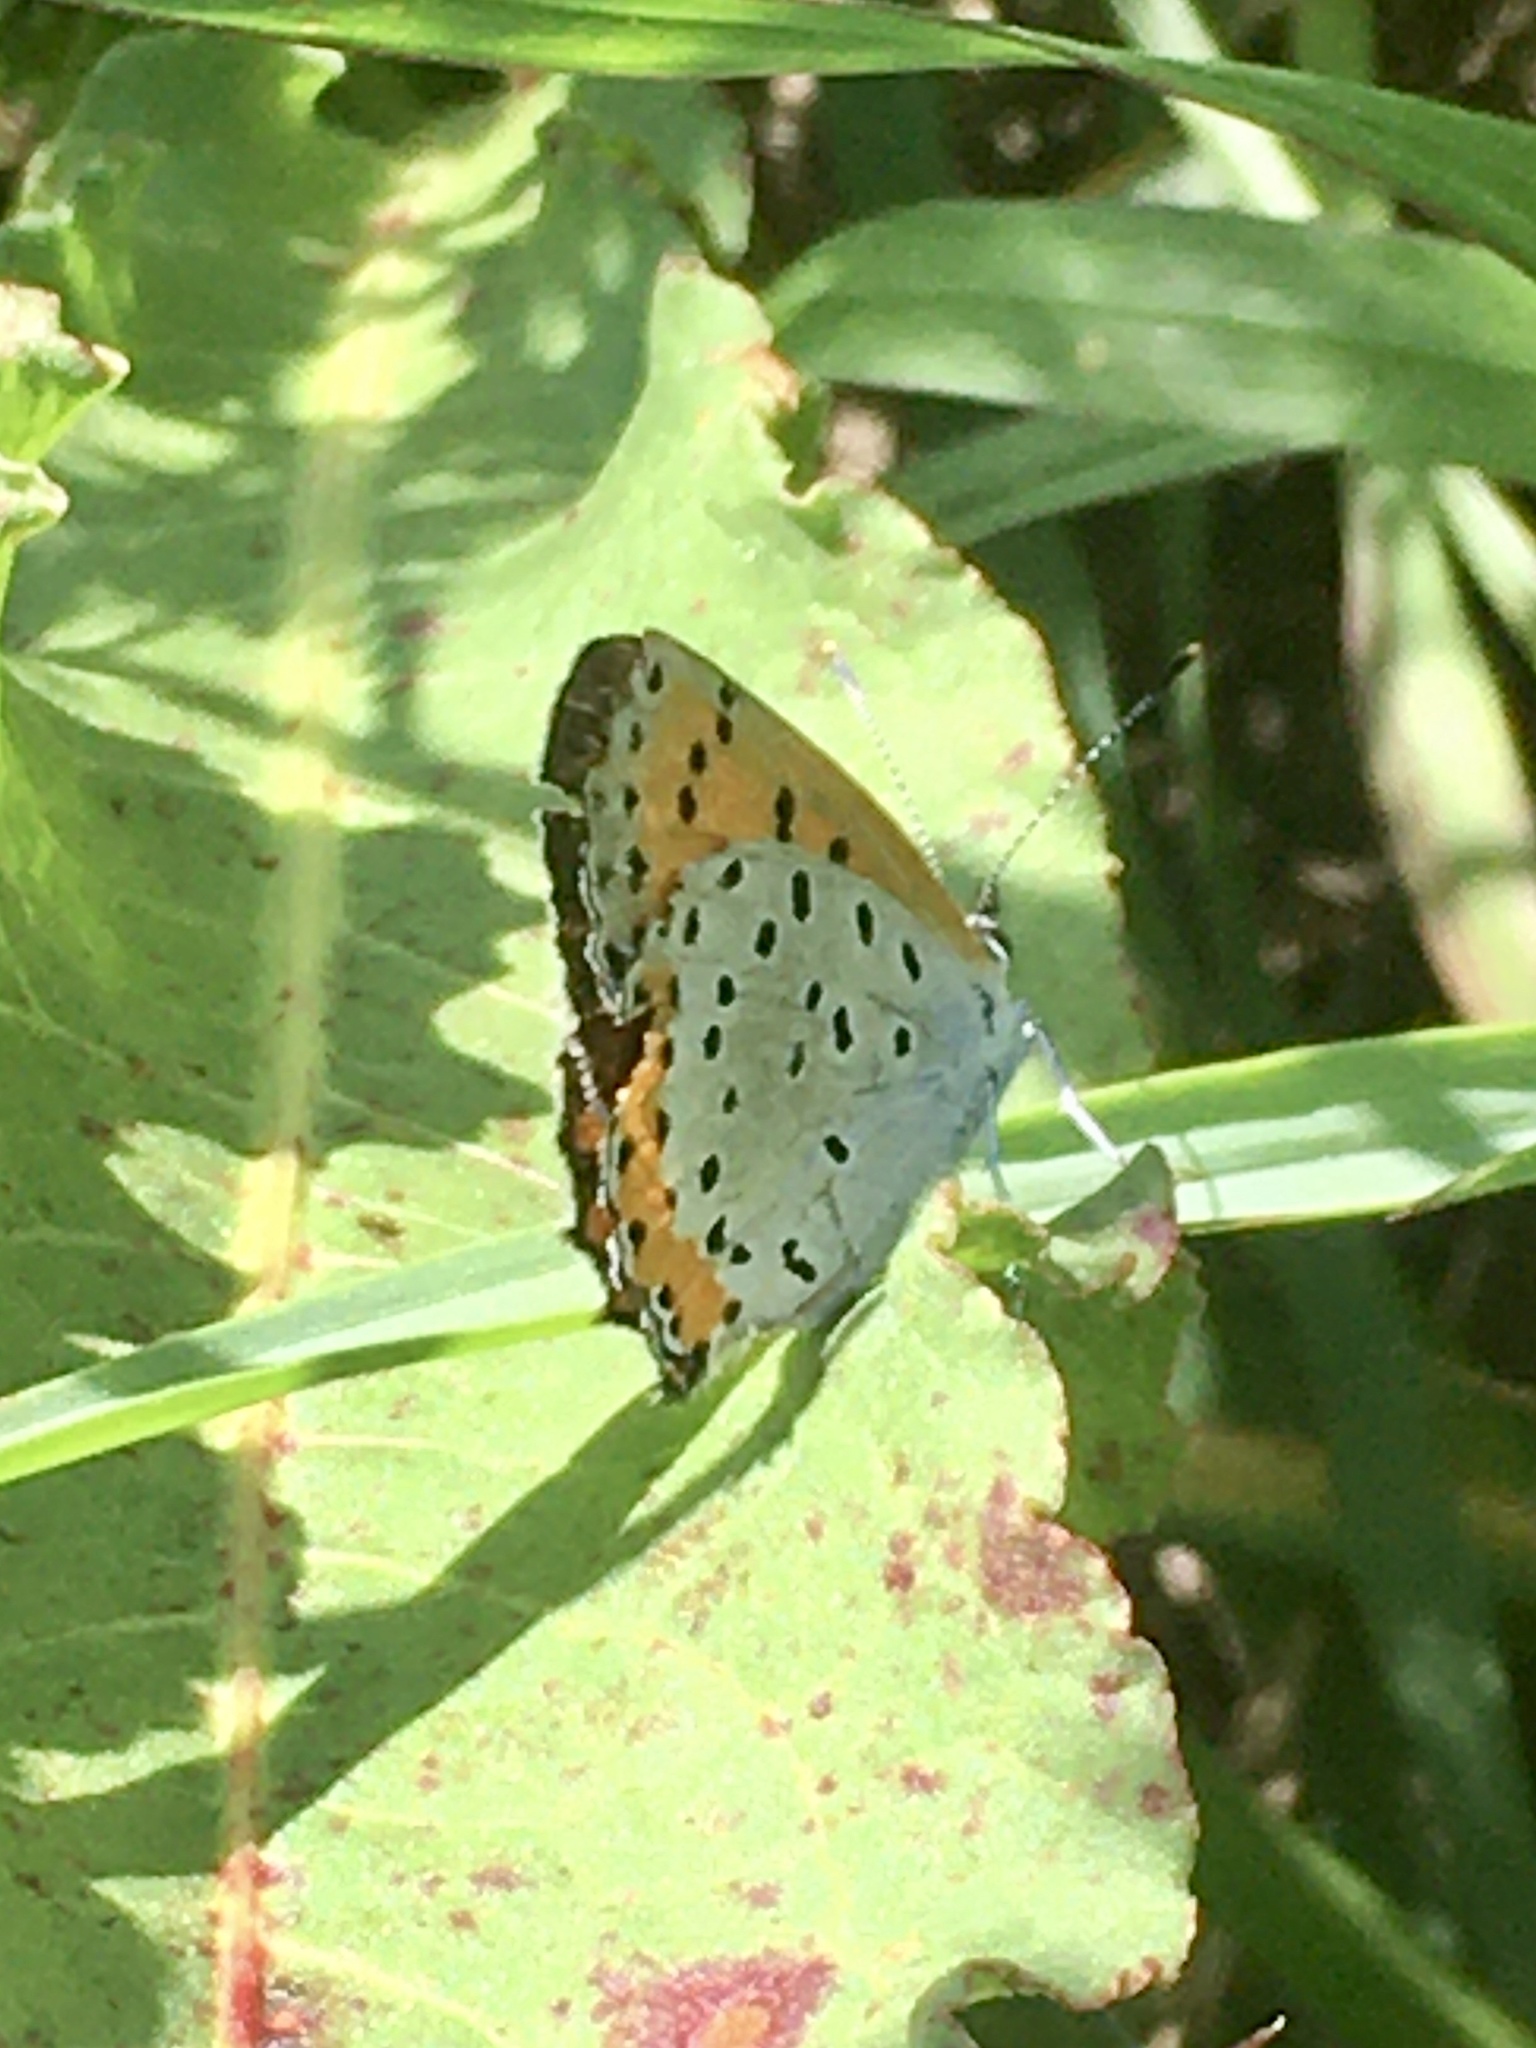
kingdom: Animalia
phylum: Arthropoda
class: Insecta
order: Lepidoptera
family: Lycaenidae
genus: Tharsalea
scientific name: Tharsalea hyllus
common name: Bronze copper
